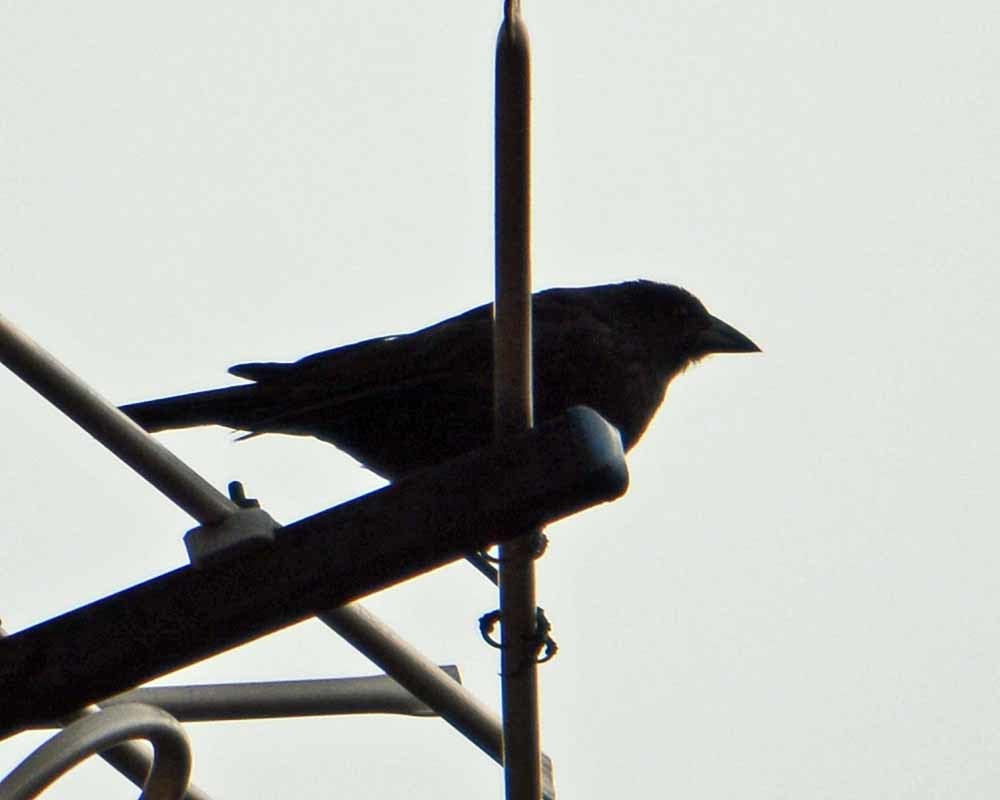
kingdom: Animalia
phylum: Chordata
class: Aves
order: Passeriformes
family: Icteridae
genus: Molothrus
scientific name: Molothrus aeneus
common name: Bronzed cowbird
